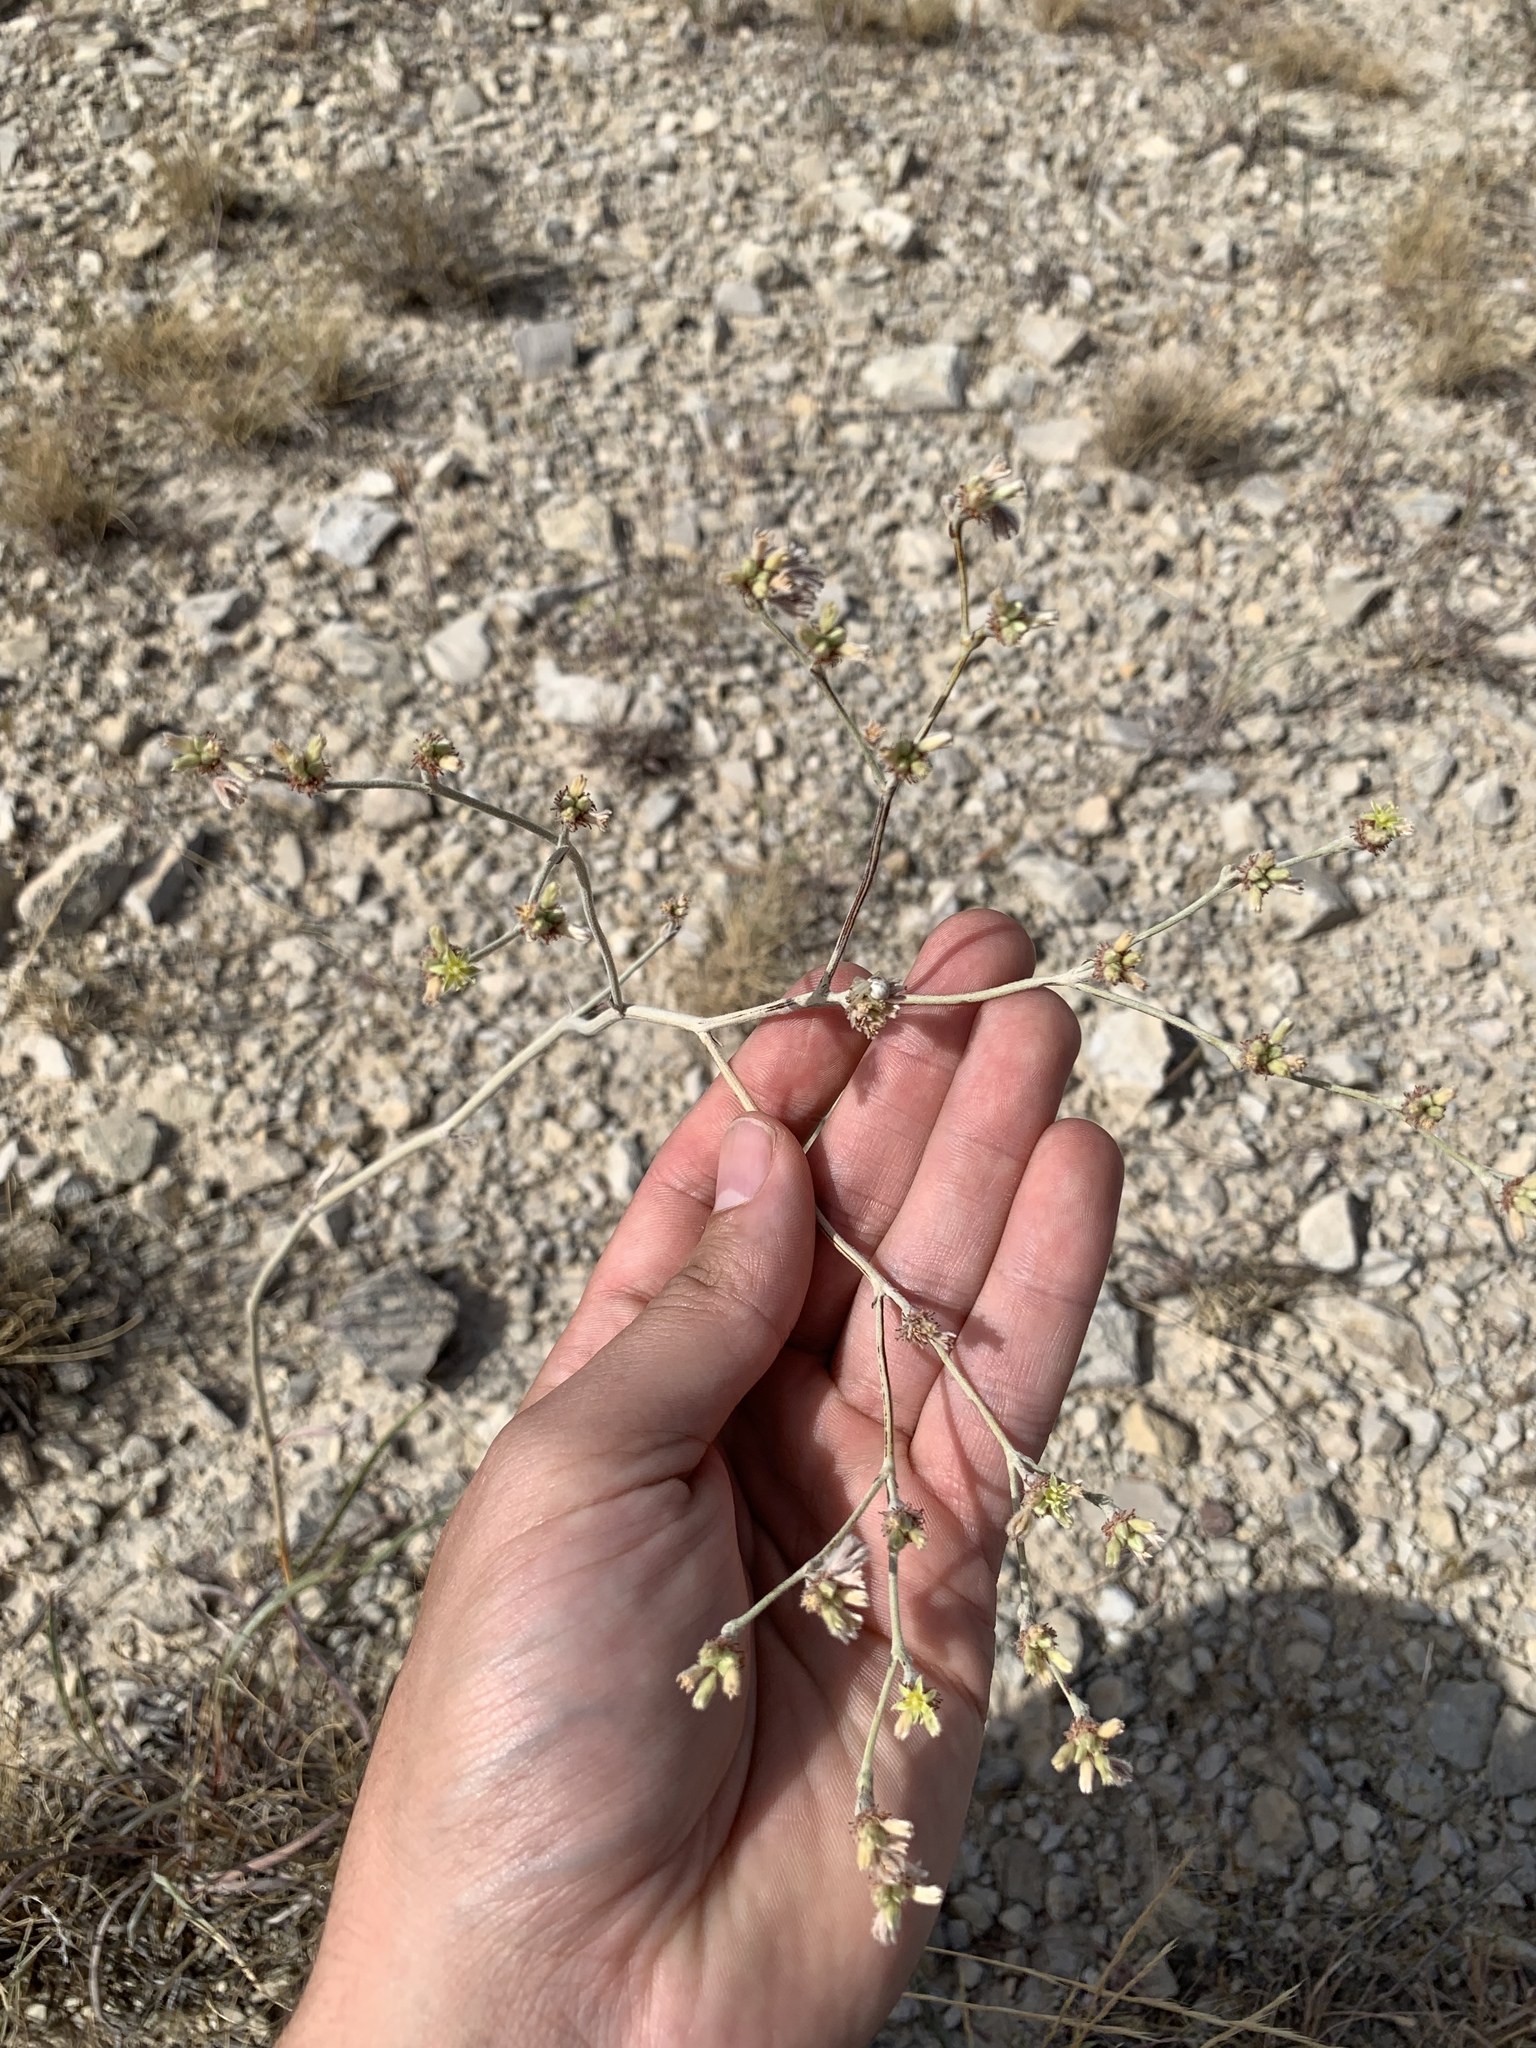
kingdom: Plantae
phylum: Tracheophyta
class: Magnoliopsida
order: Caryophyllales
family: Polygonaceae
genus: Eriogonum
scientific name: Eriogonum longifolium
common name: Longleaf wild buckwheat
